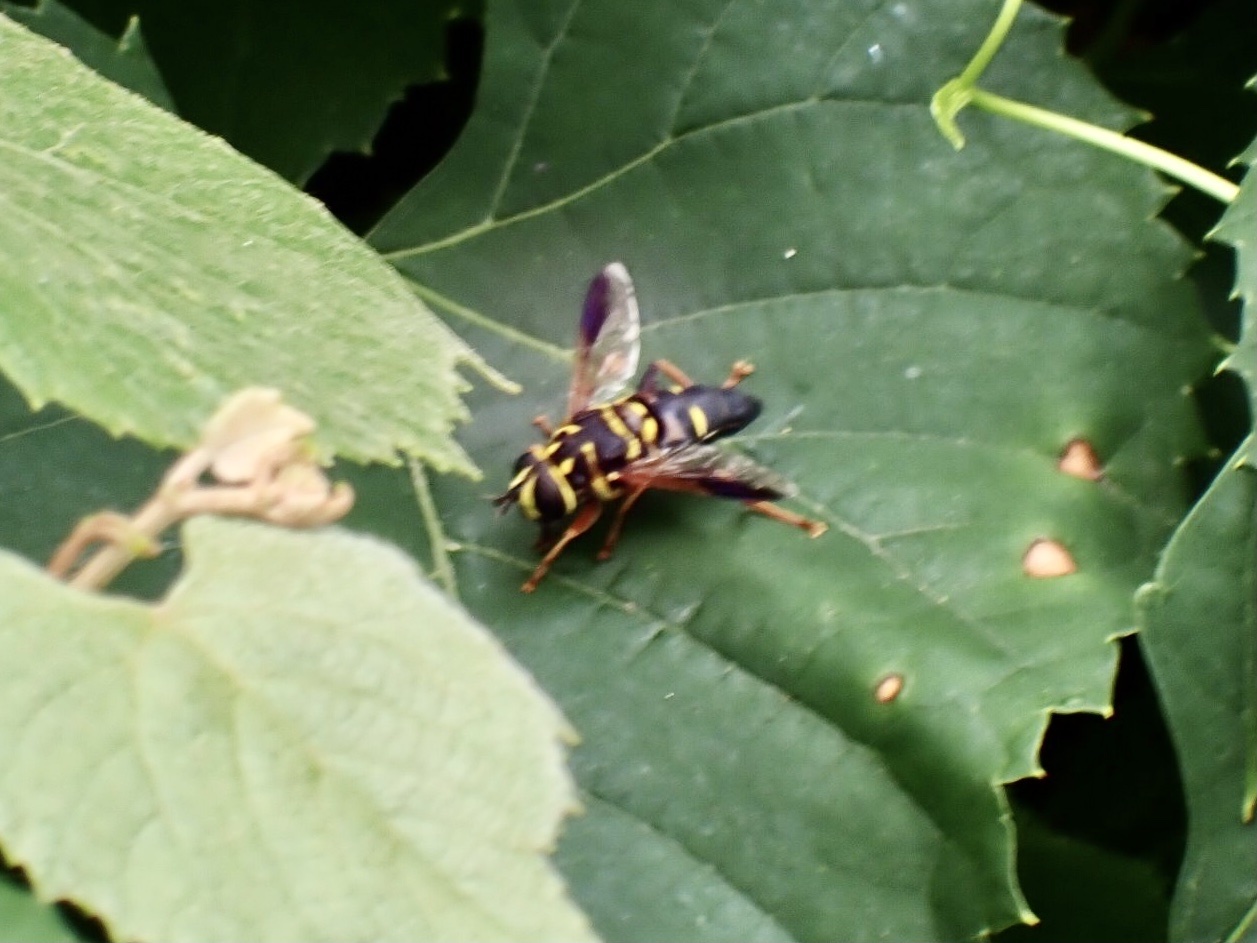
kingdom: Animalia
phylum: Arthropoda
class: Insecta
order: Diptera
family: Syrphidae
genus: Meromacrus
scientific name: Meromacrus acutus
